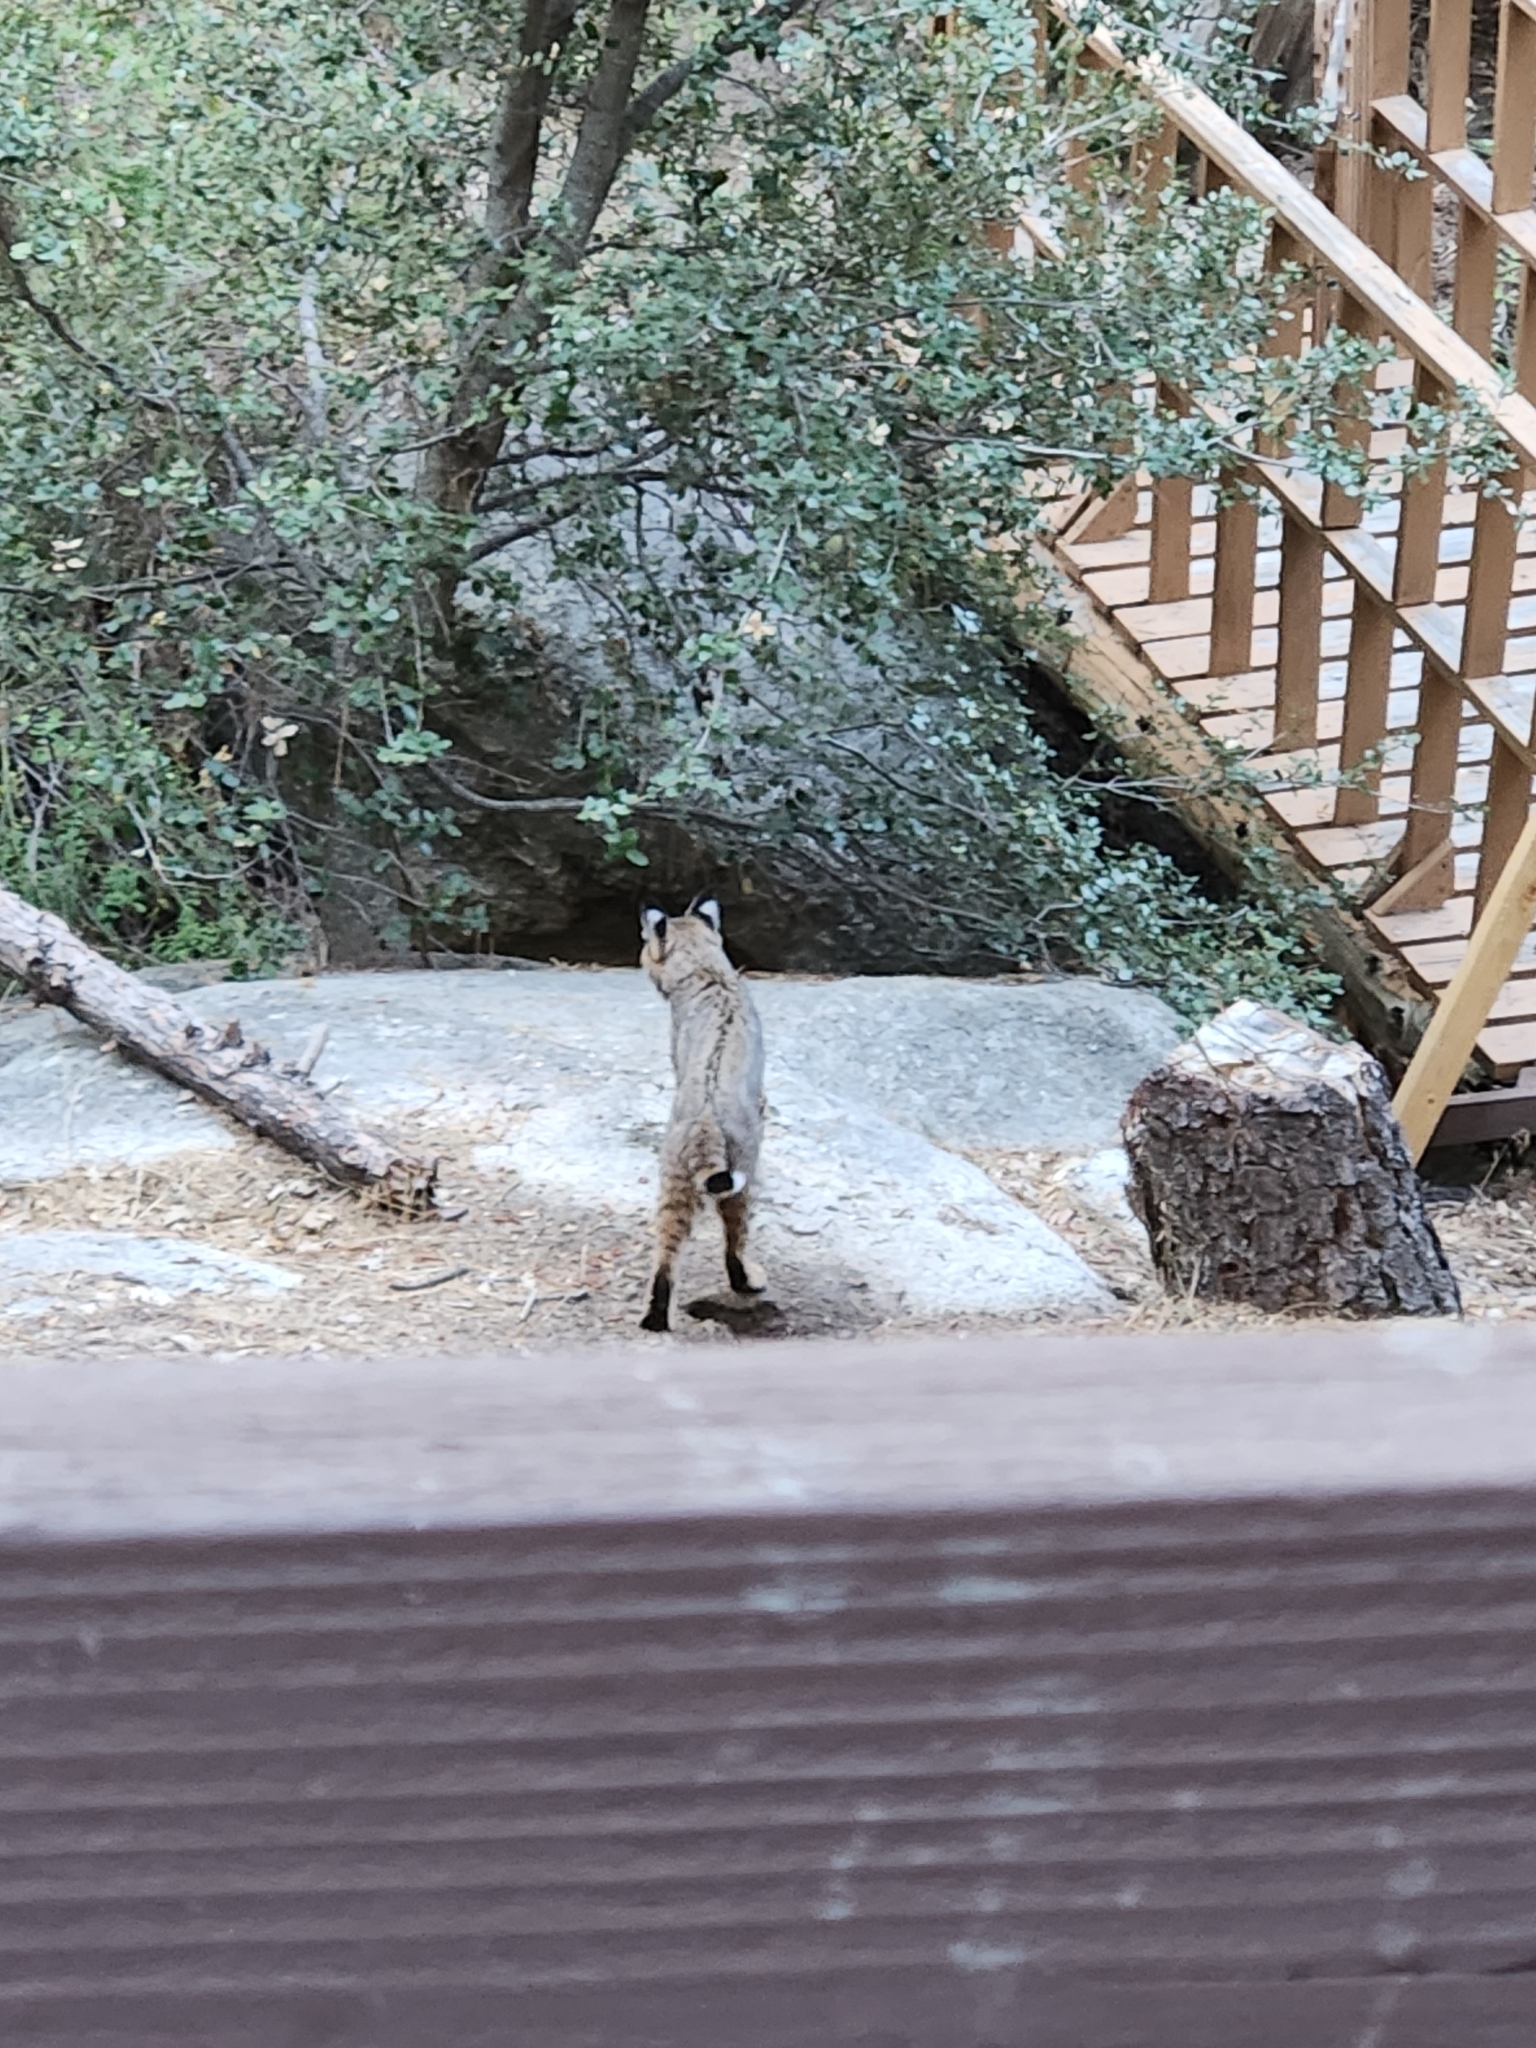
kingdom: Animalia
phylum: Chordata
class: Mammalia
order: Carnivora
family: Felidae
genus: Lynx
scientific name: Lynx rufus
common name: Bobcat
